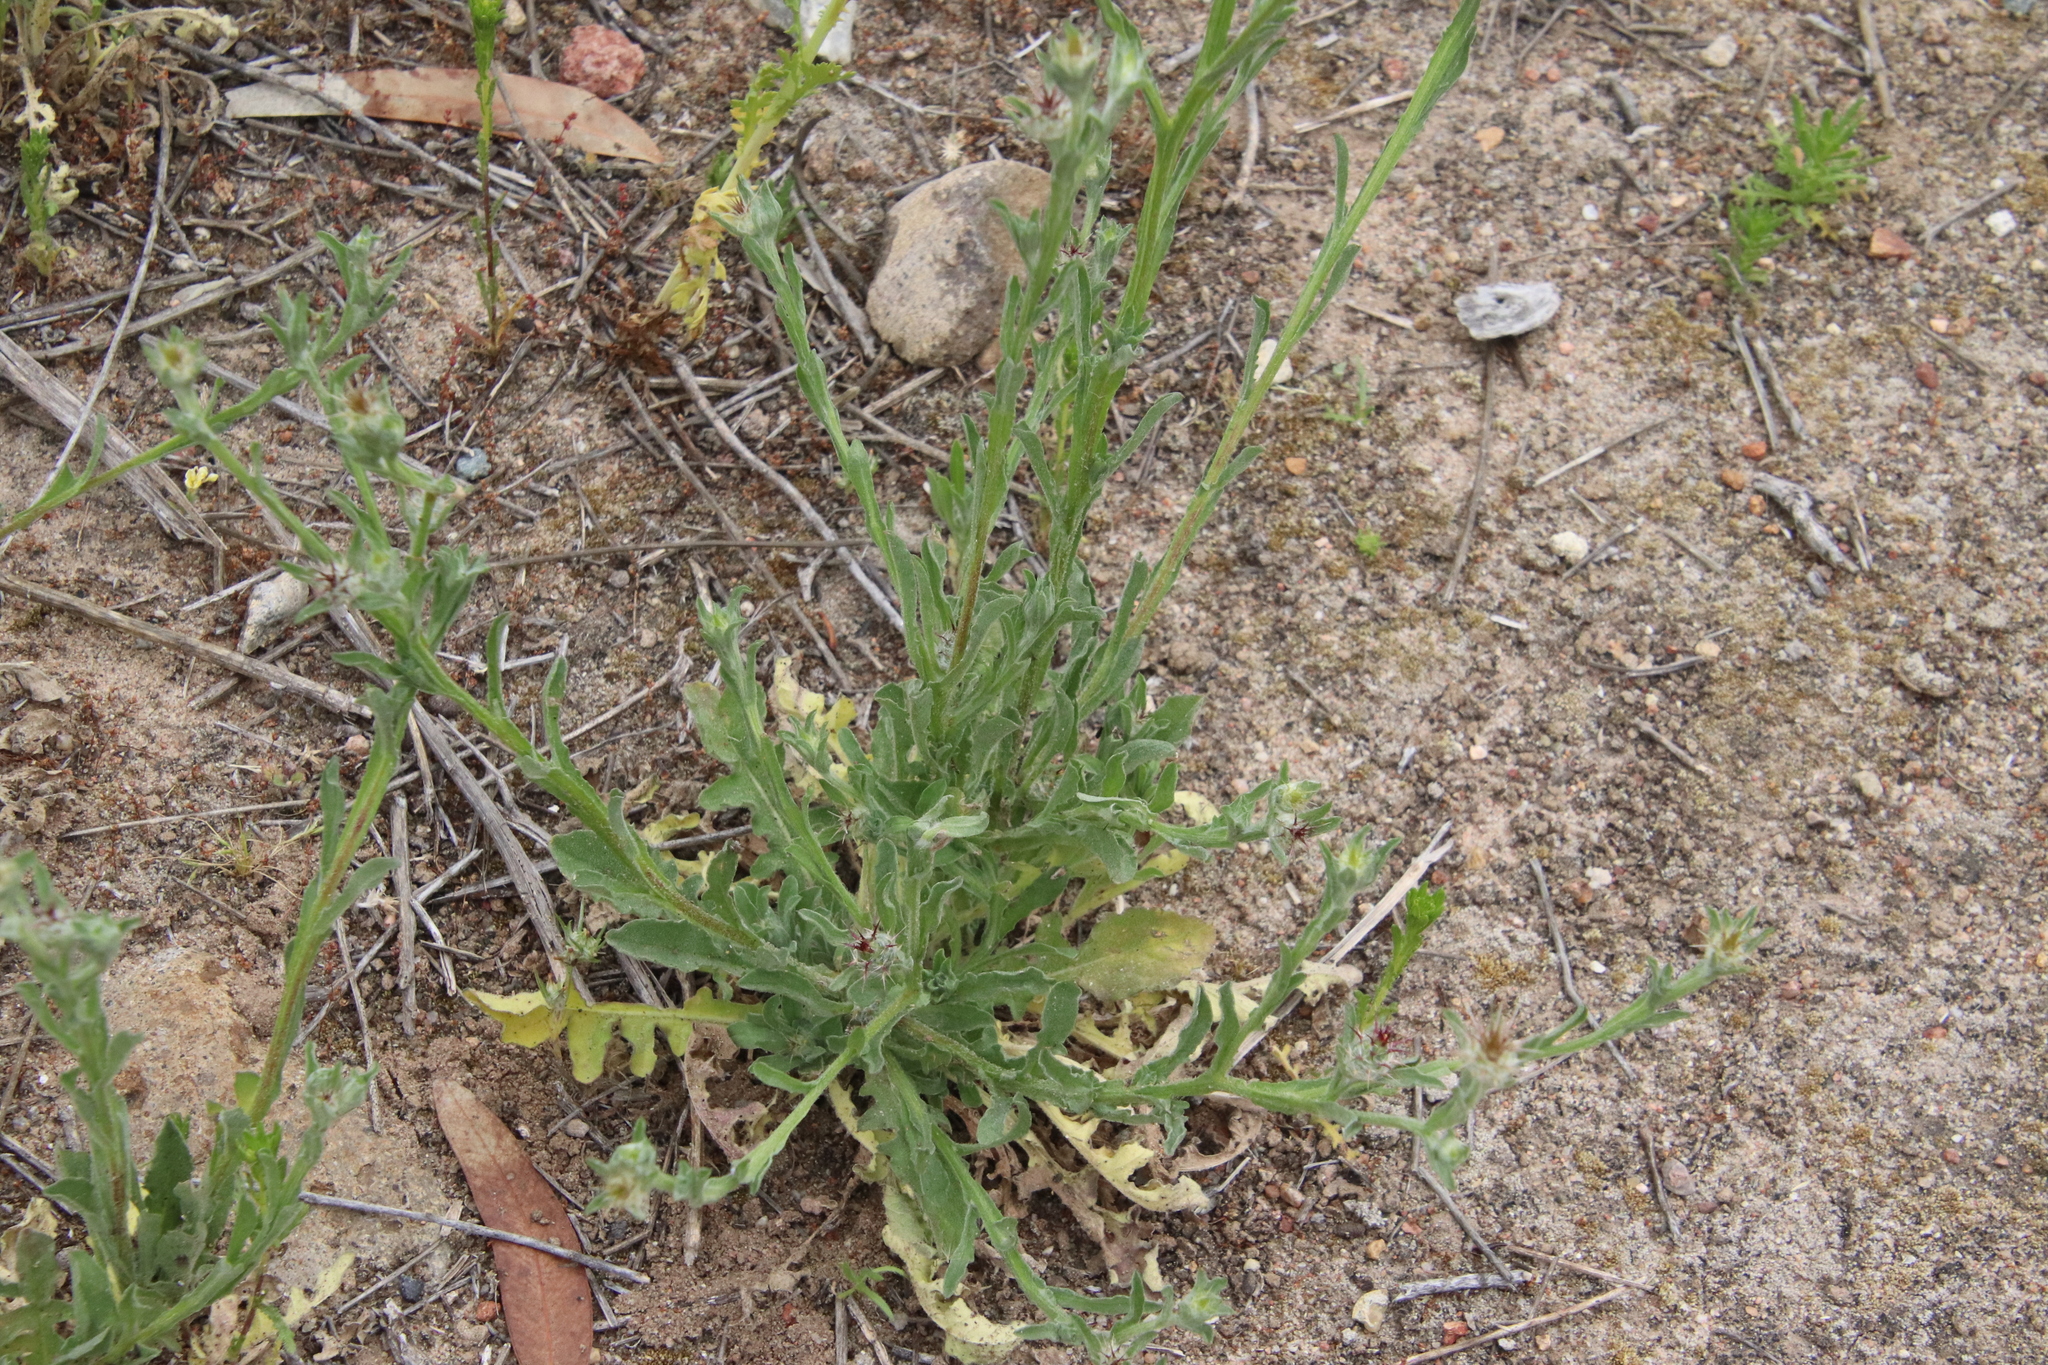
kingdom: Plantae
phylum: Tracheophyta
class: Magnoliopsida
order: Asterales
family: Asteraceae
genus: Centaurea
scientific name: Centaurea melitensis
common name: Maltese star-thistle
